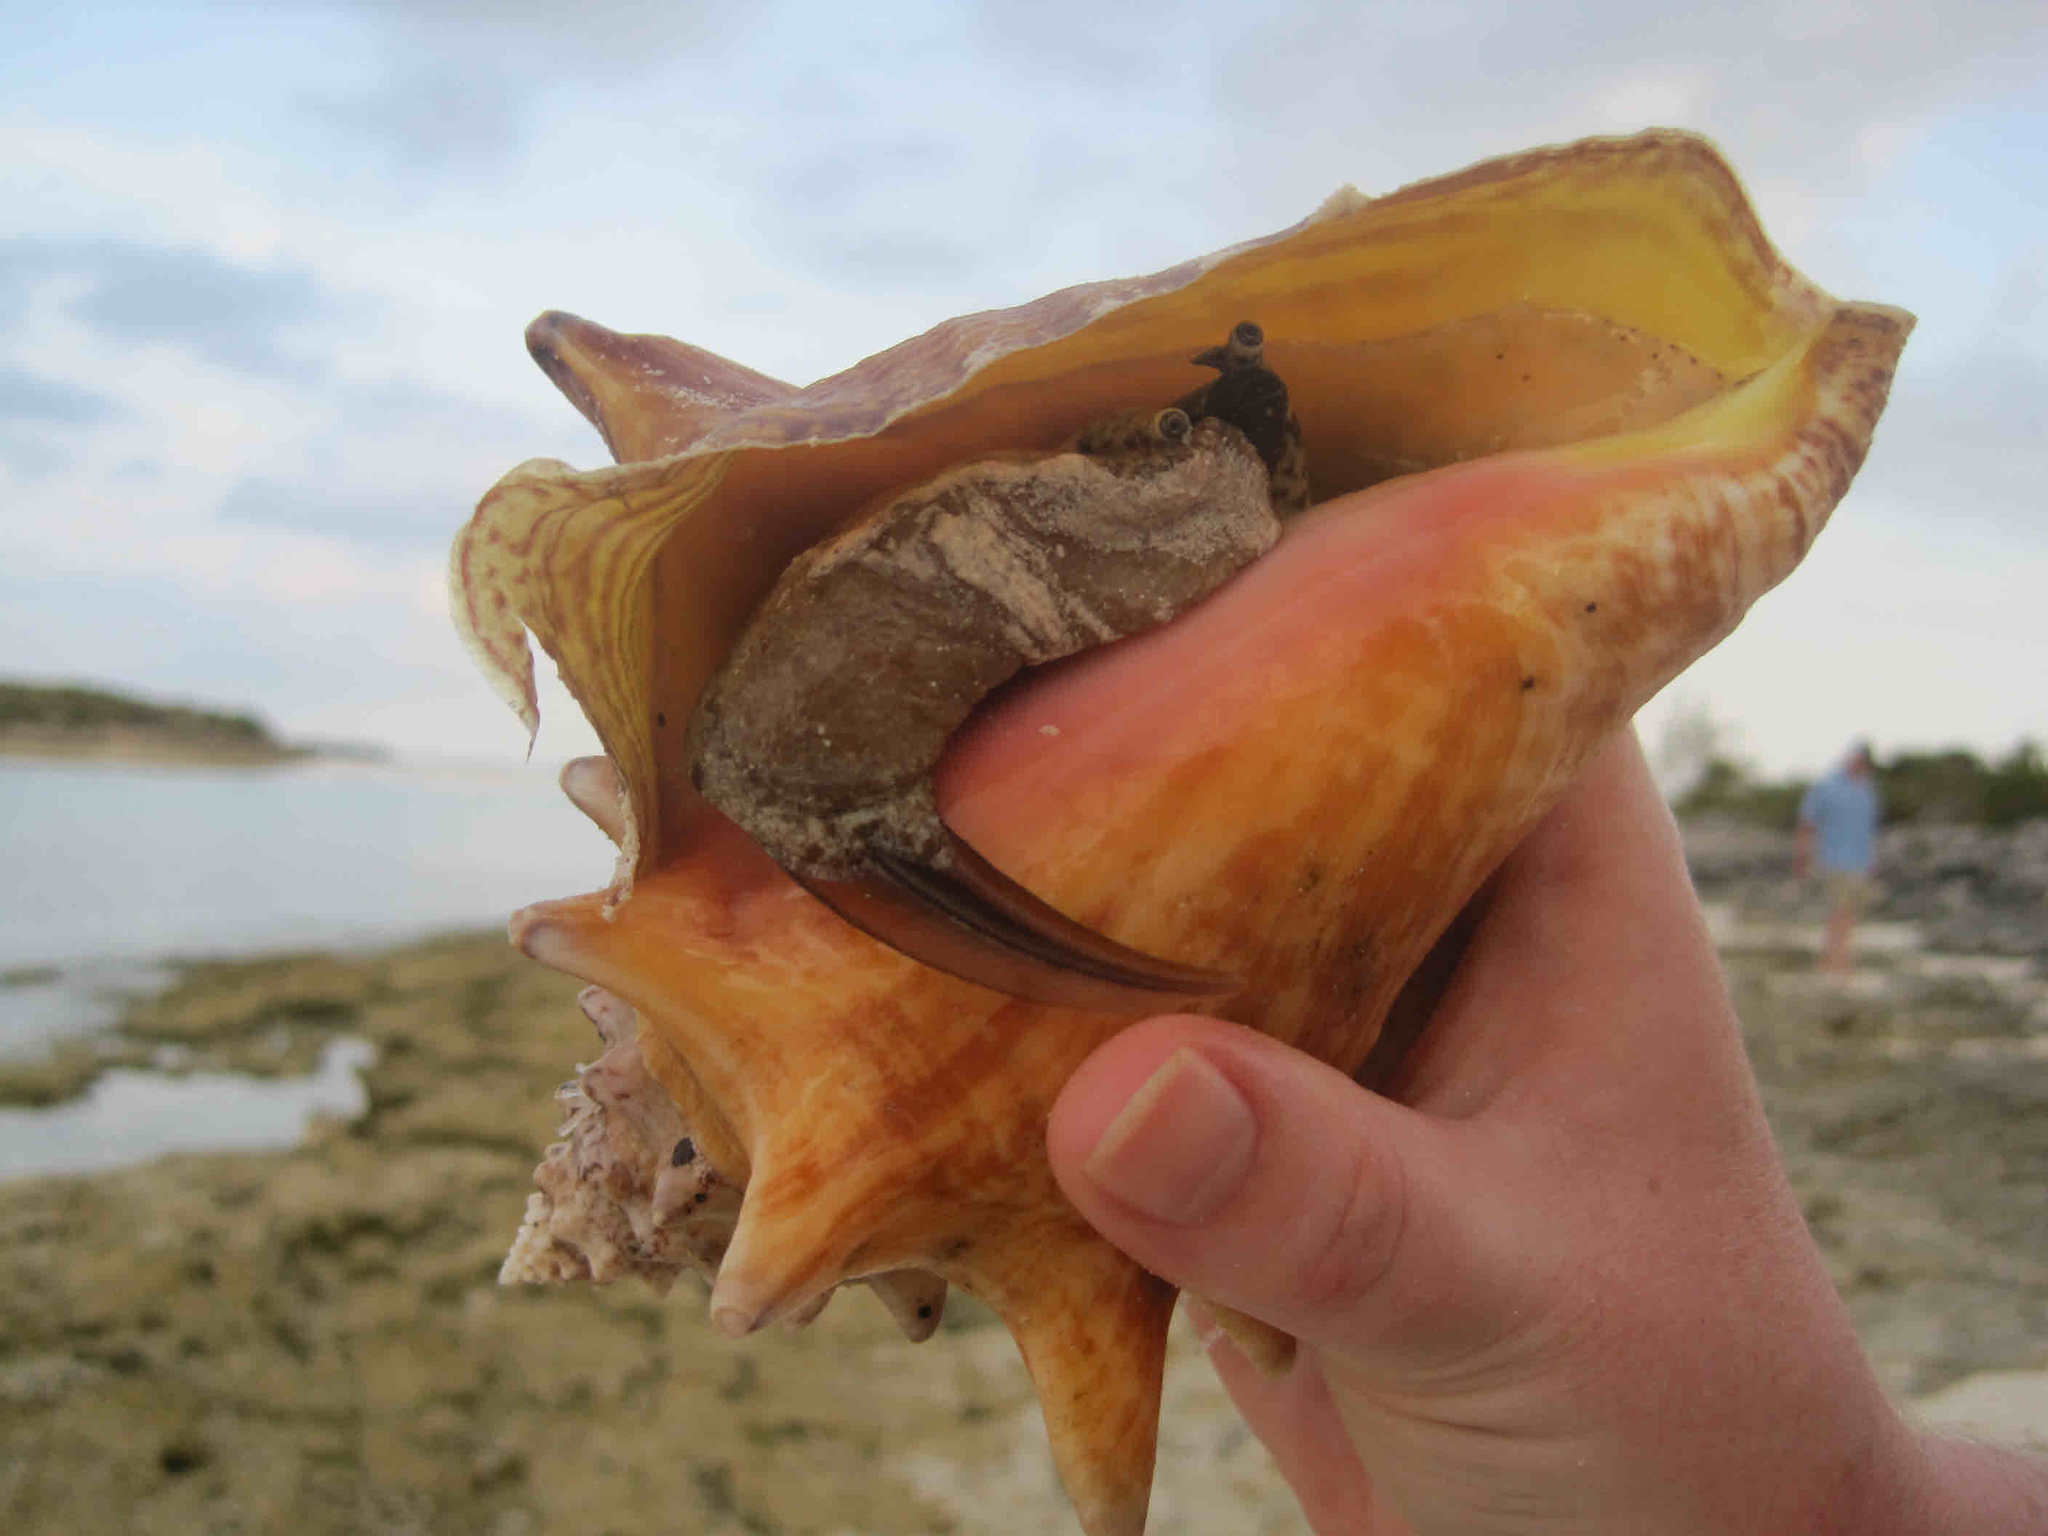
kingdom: Animalia
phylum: Mollusca
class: Gastropoda
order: Littorinimorpha
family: Strombidae
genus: Aliger
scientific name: Aliger gigas
